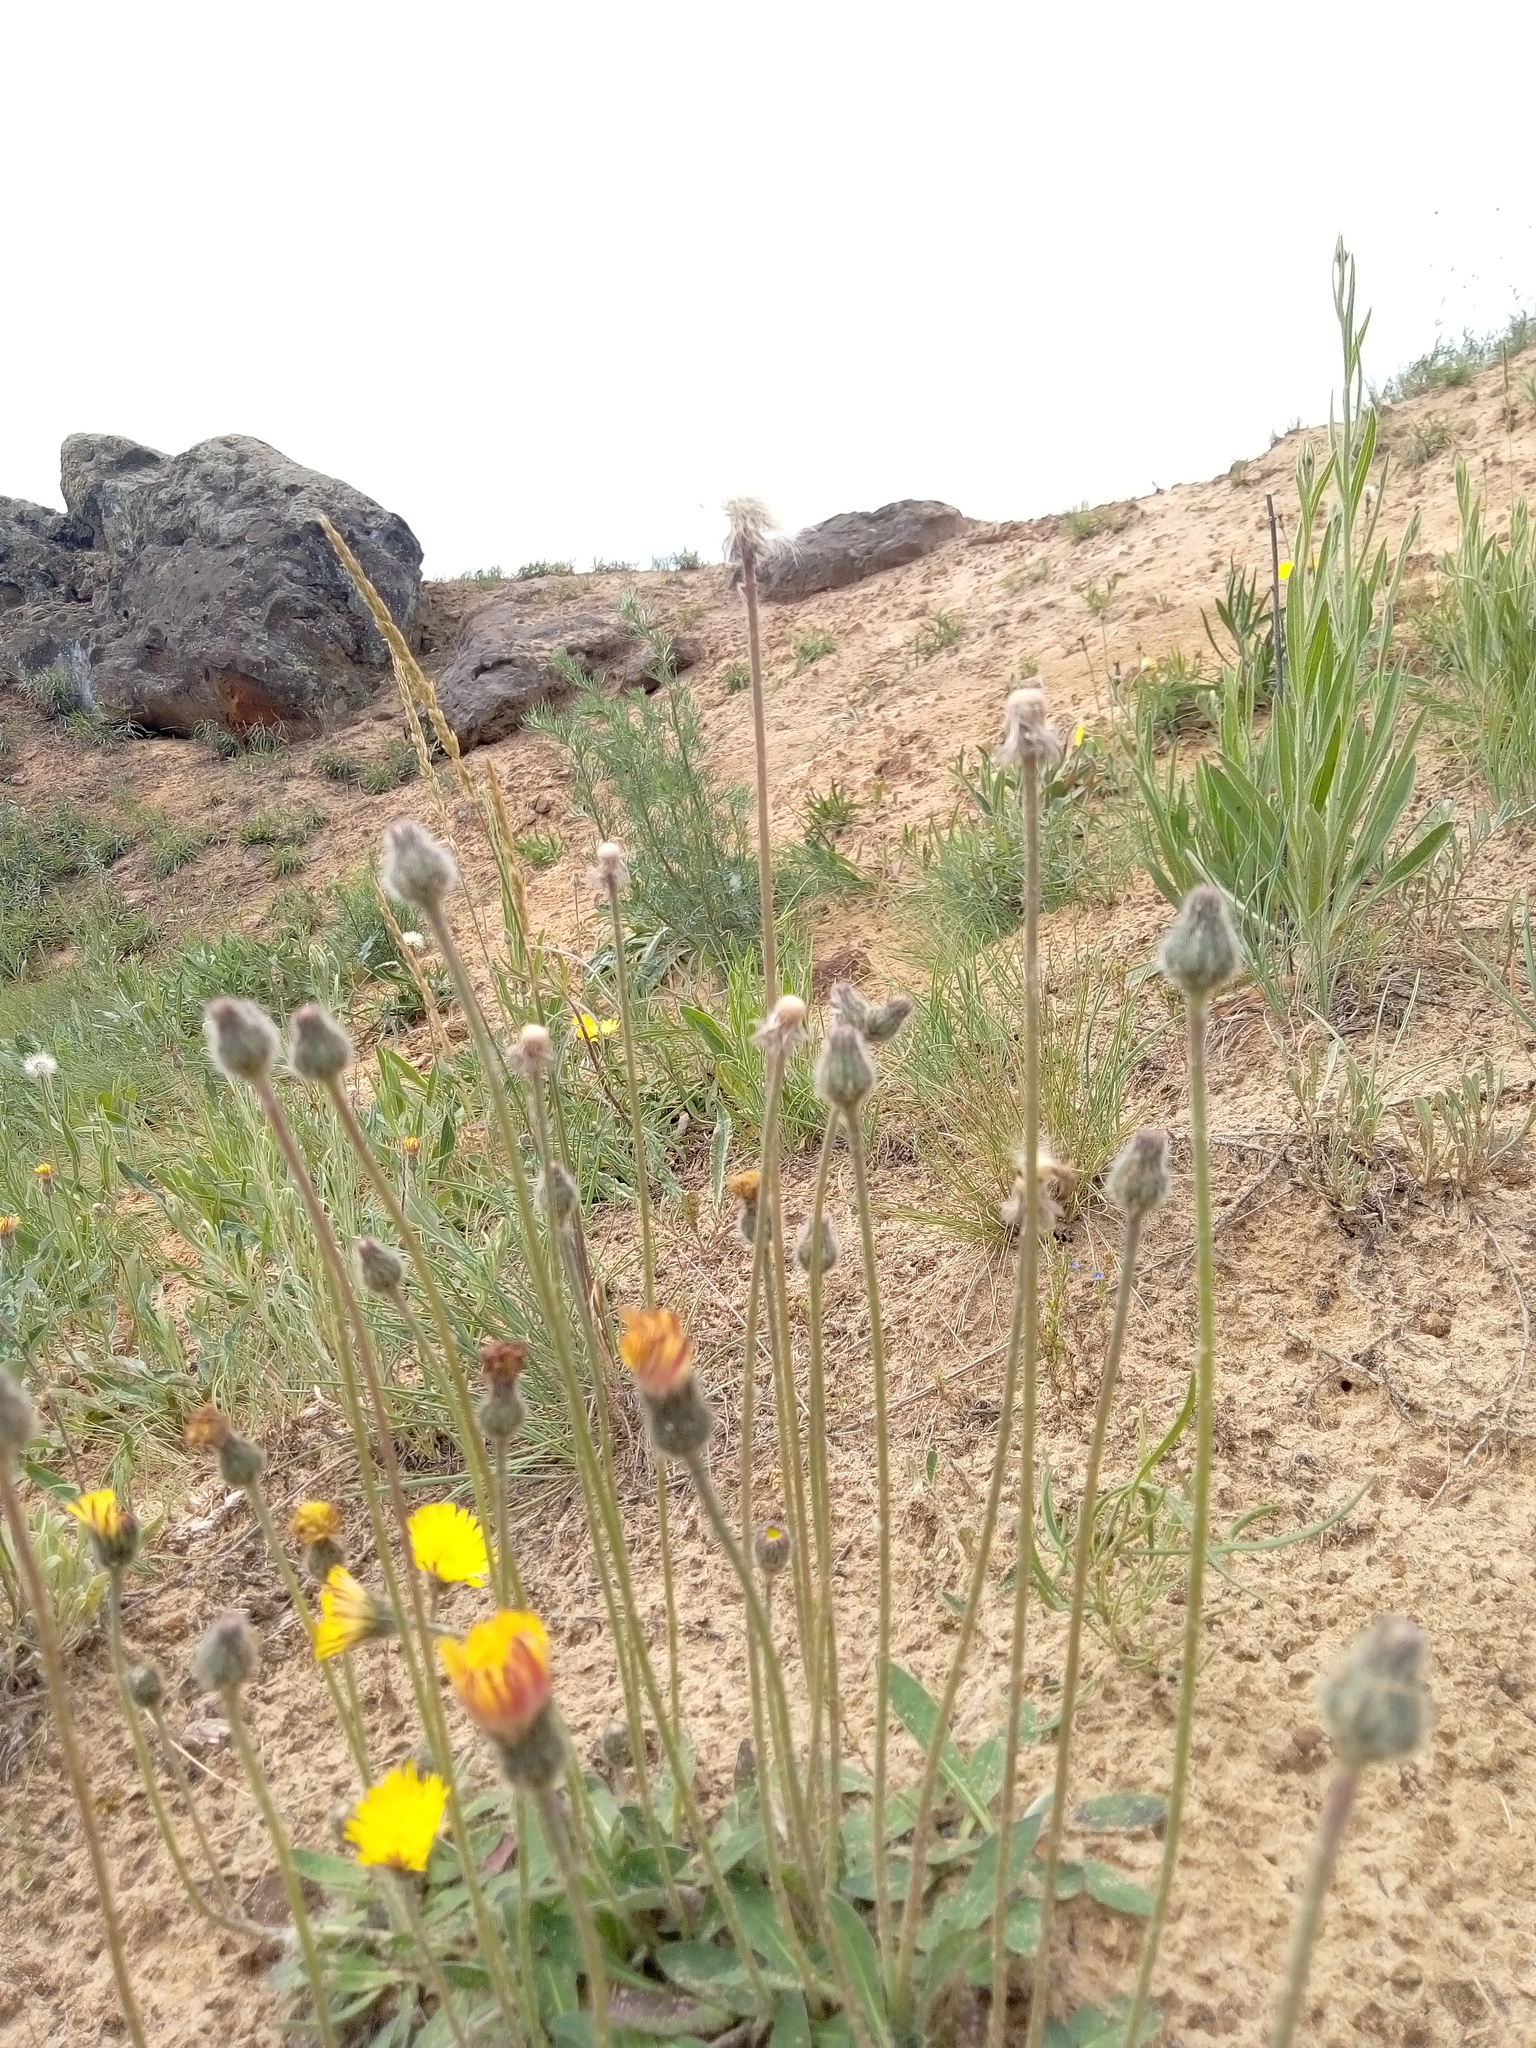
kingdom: Plantae
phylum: Tracheophyta
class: Magnoliopsida
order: Asterales
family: Asteraceae
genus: Pilosella
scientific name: Pilosella officinarum
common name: Mouse-ear hawkweed
